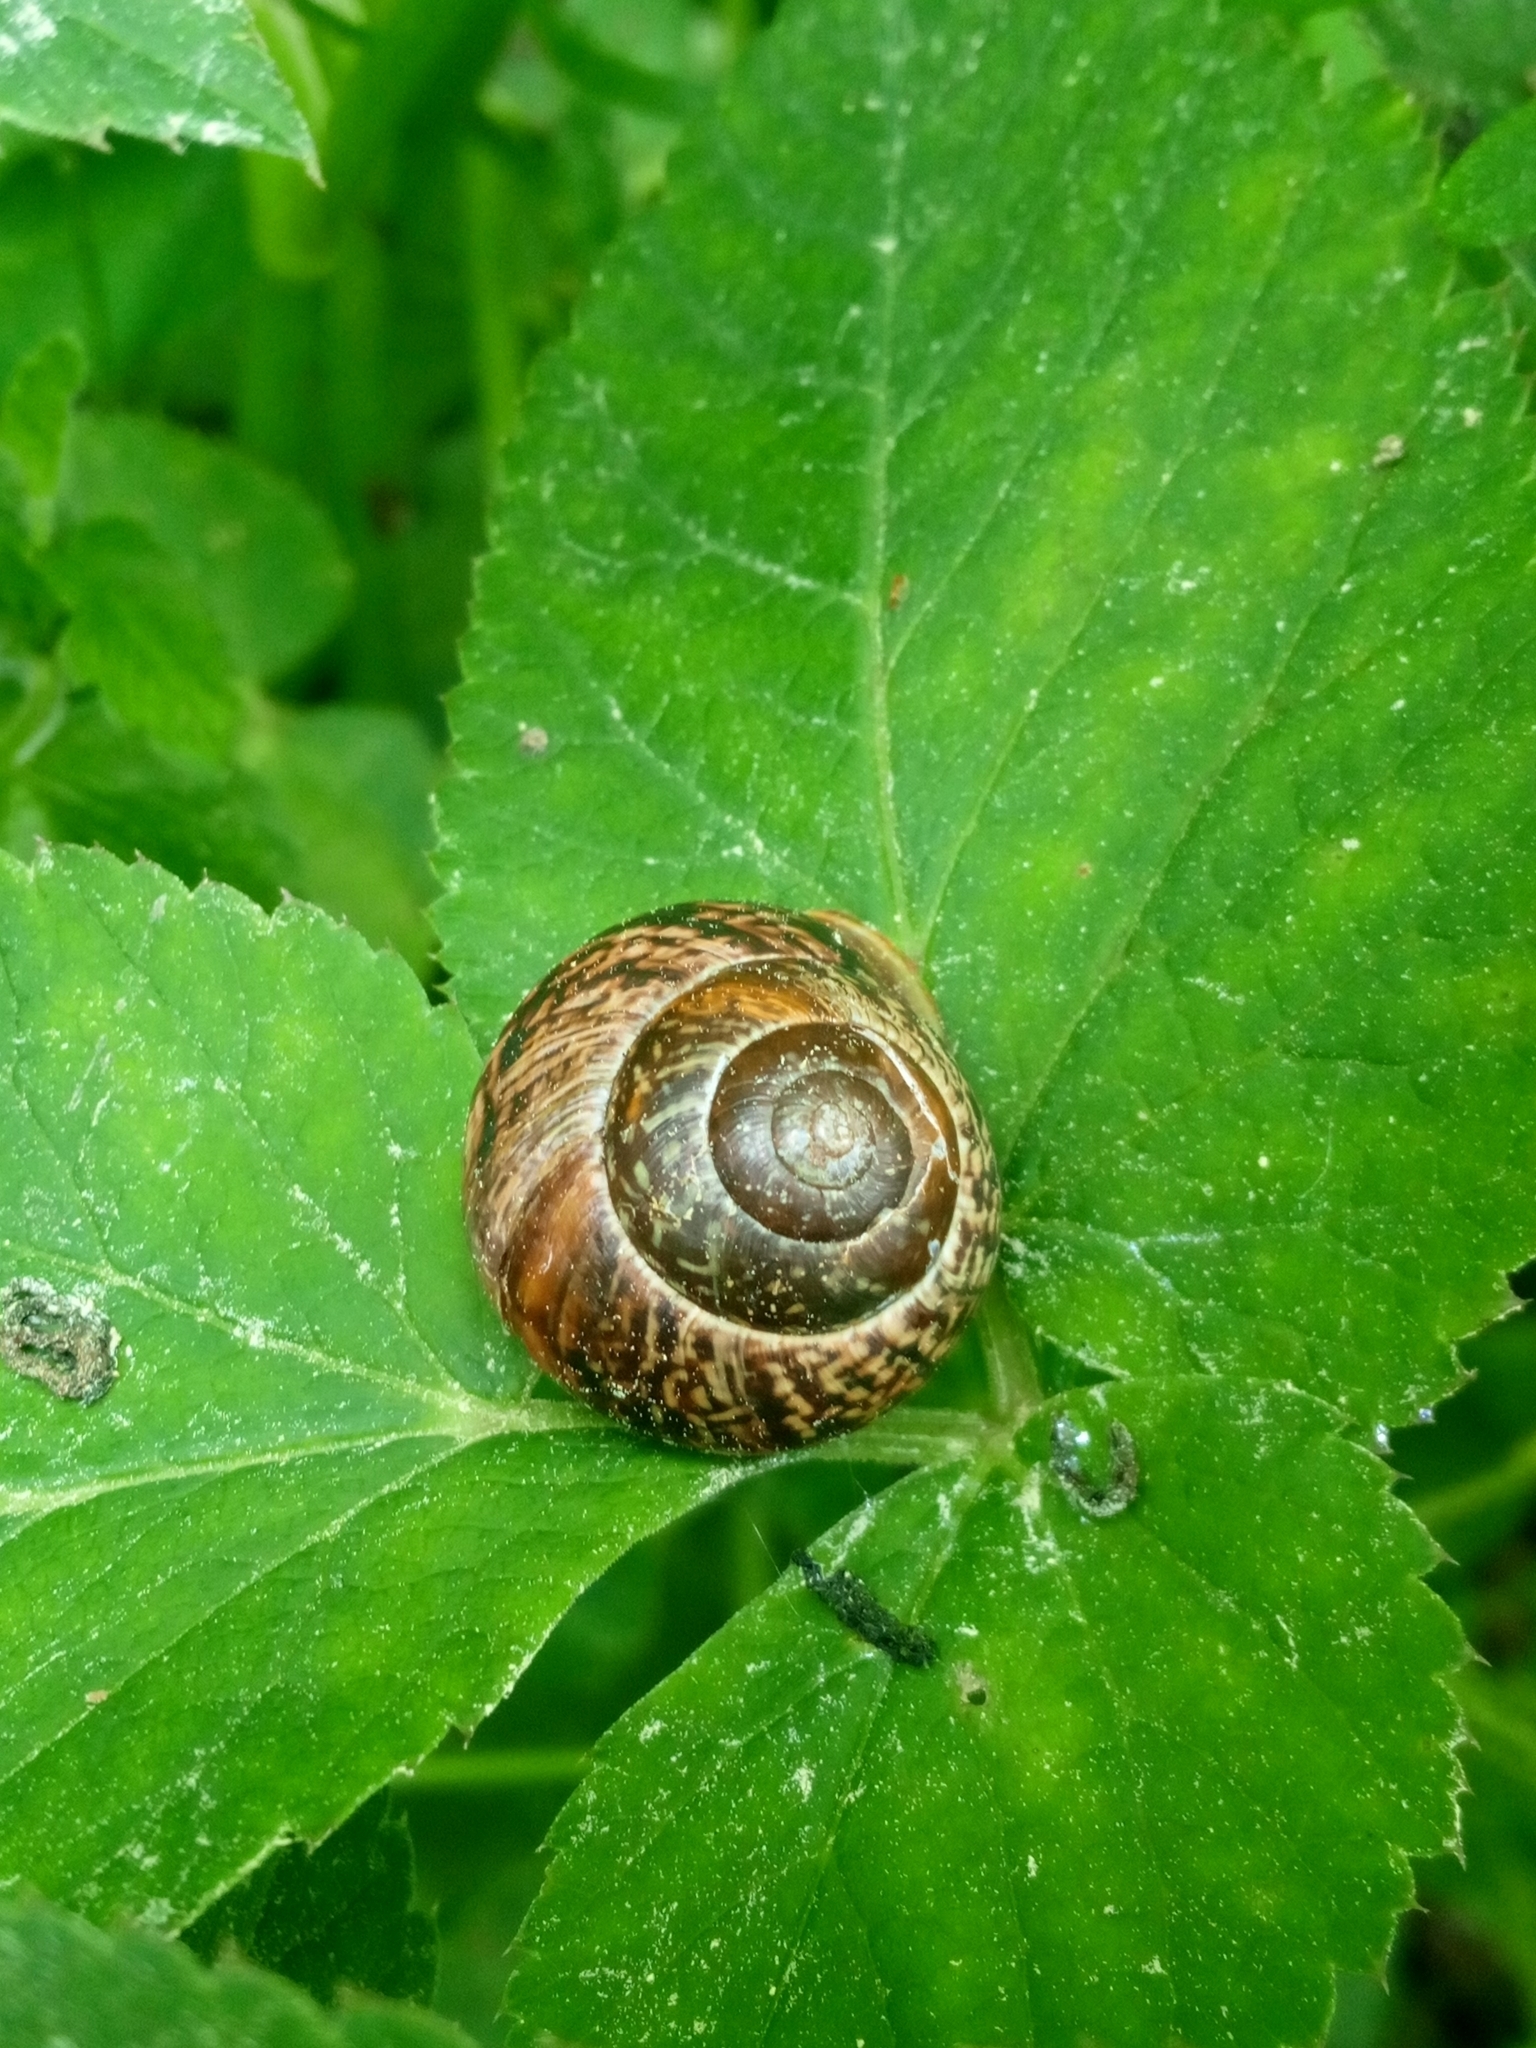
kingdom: Animalia
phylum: Mollusca
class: Gastropoda
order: Stylommatophora
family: Helicidae
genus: Arianta
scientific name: Arianta arbustorum
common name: Copse snail
